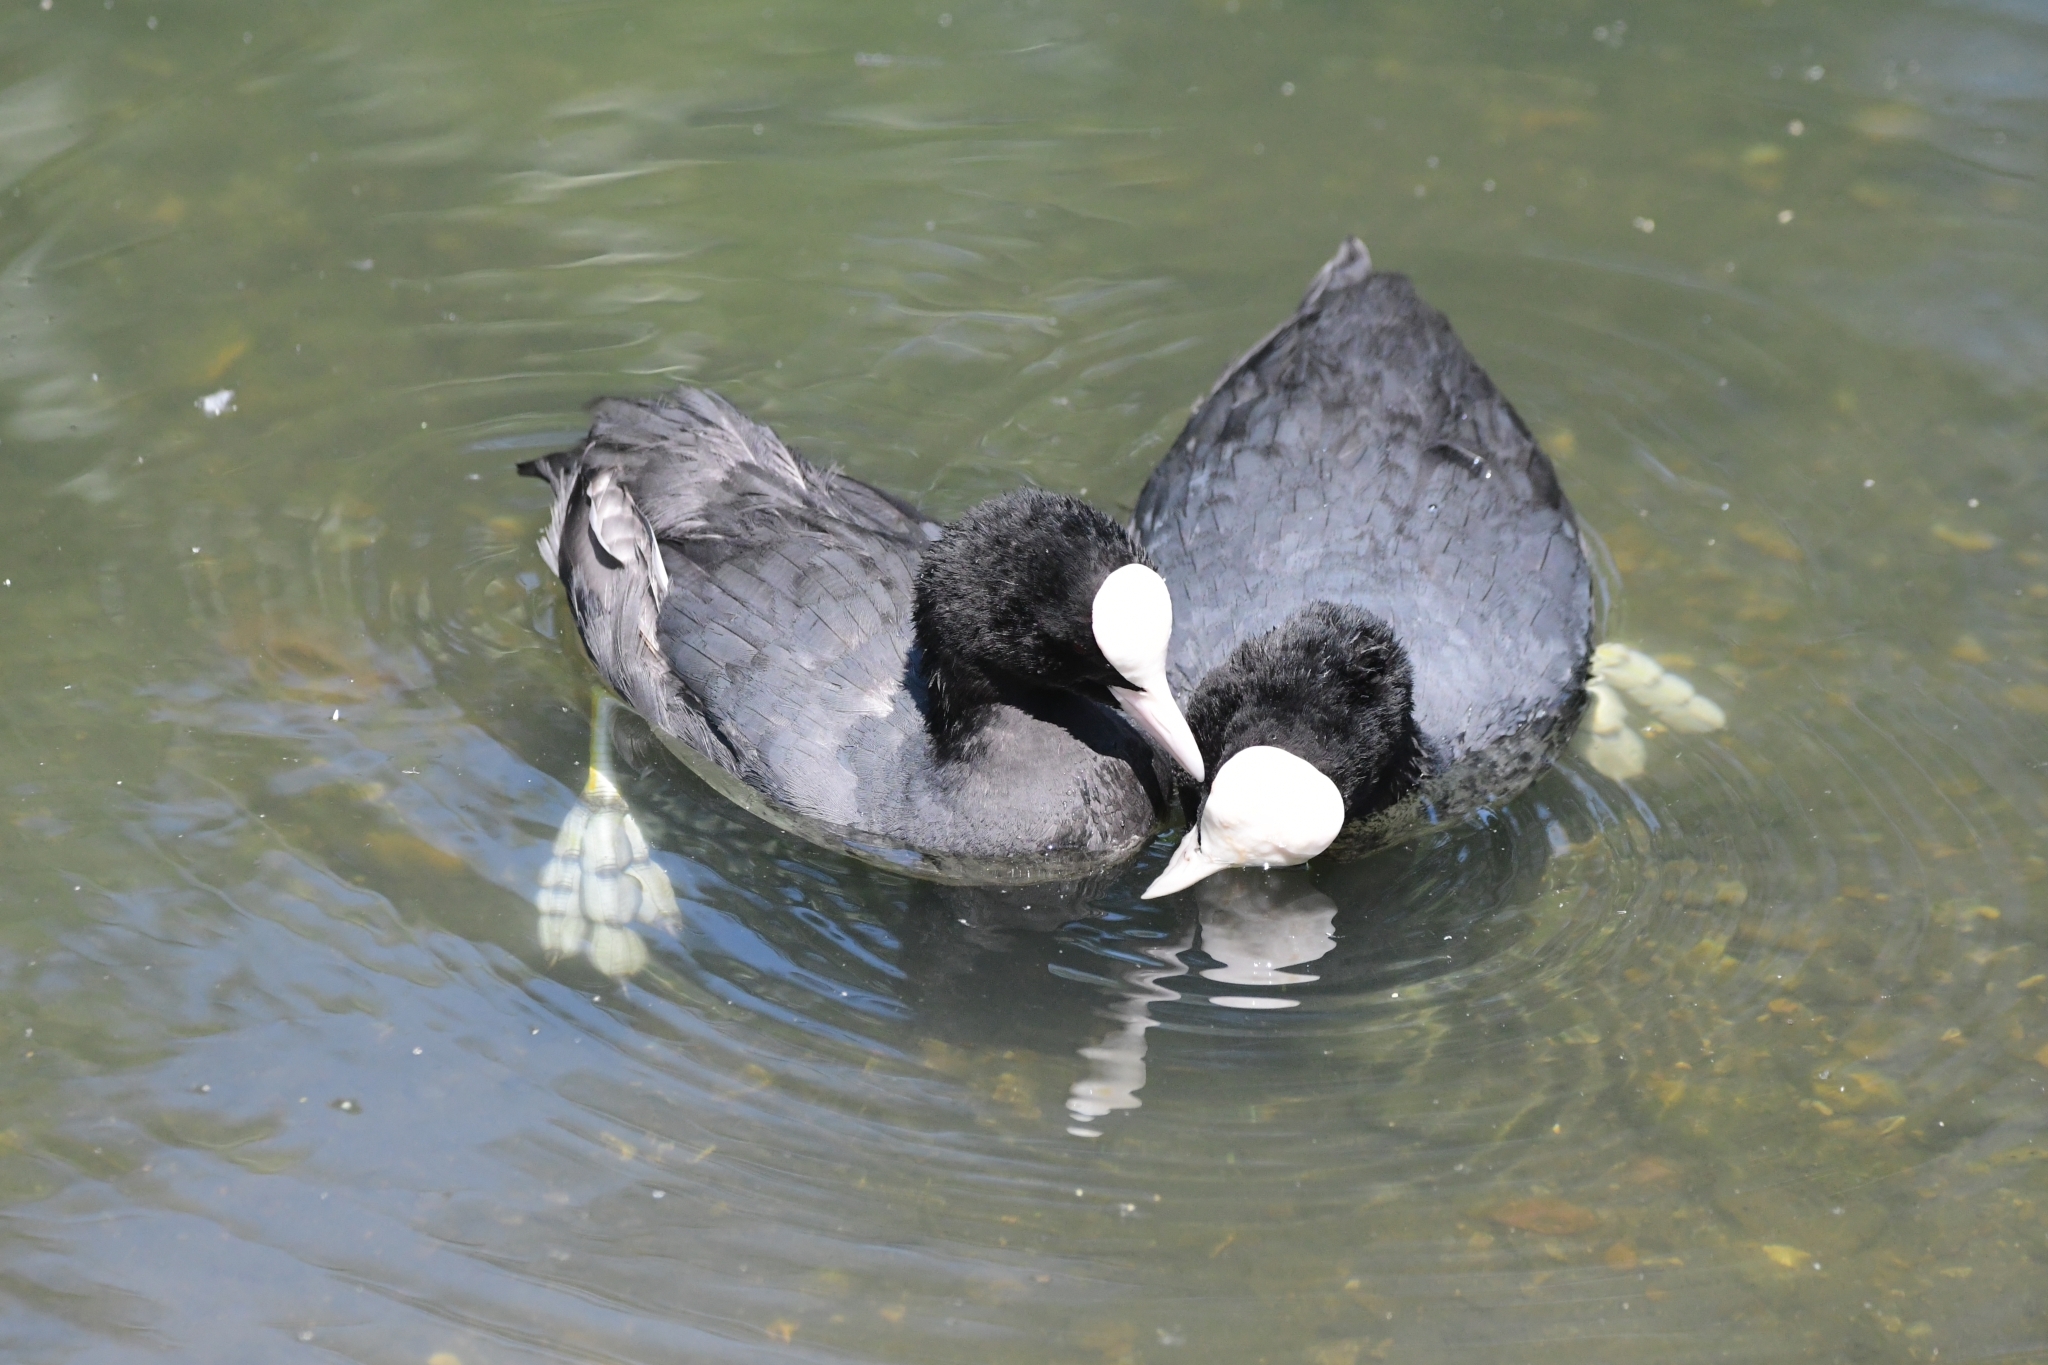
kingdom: Animalia
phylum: Chordata
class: Aves
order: Gruiformes
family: Rallidae
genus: Fulica
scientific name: Fulica atra
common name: Eurasian coot
